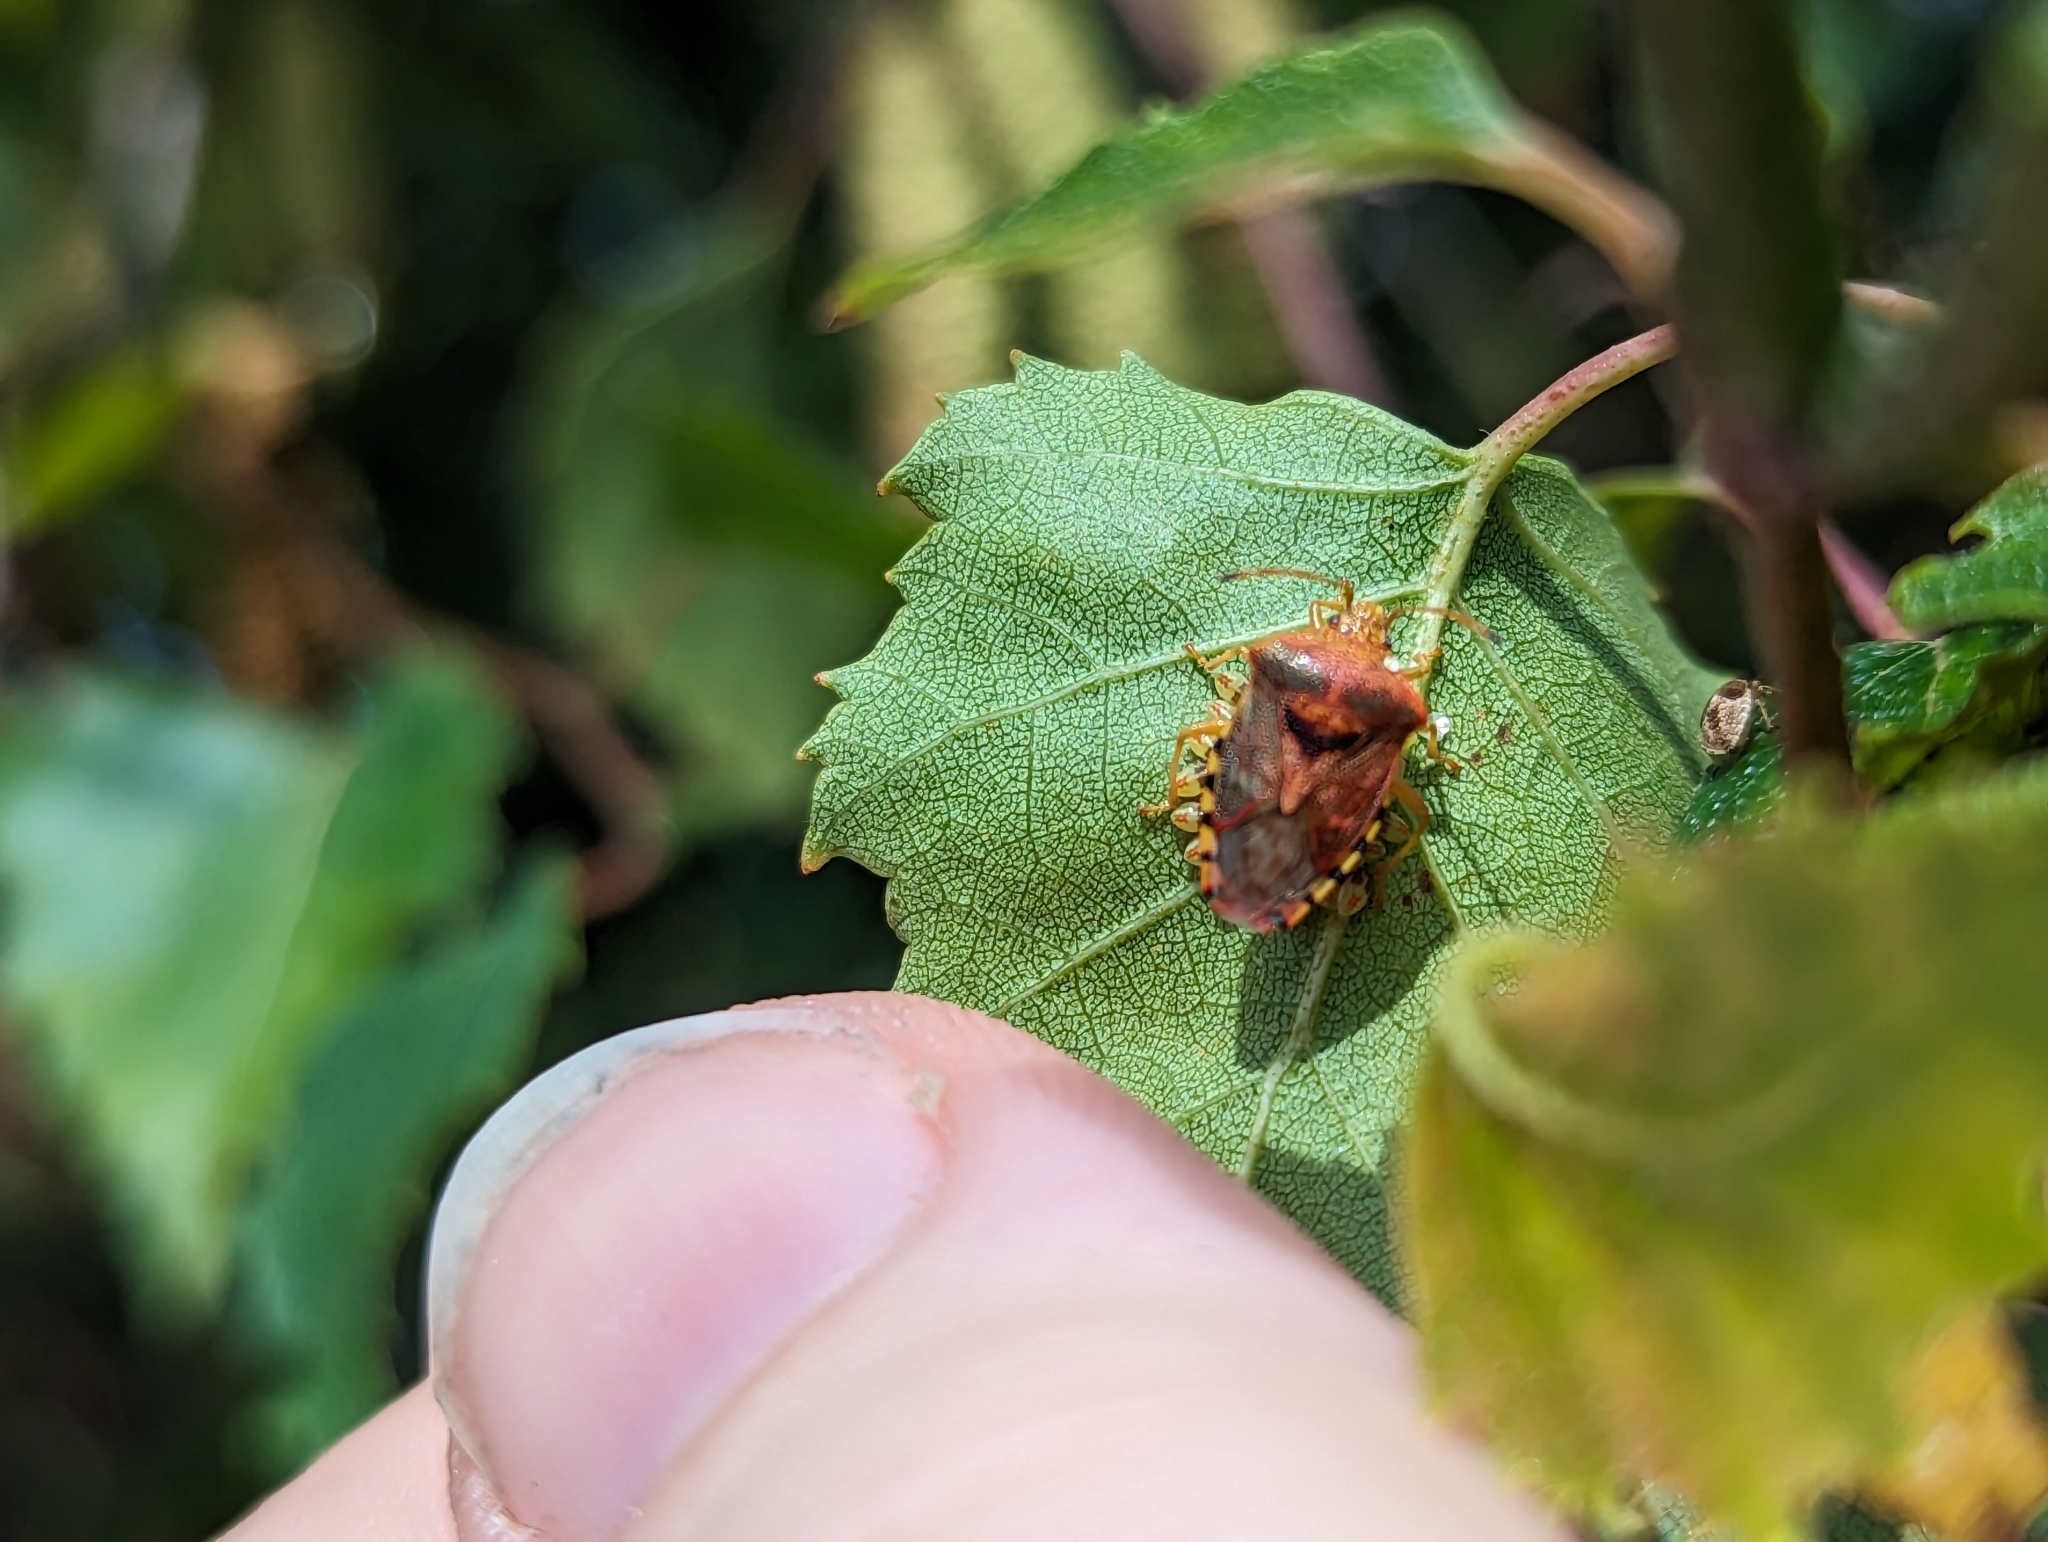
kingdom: Animalia
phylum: Arthropoda
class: Insecta
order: Hemiptera
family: Acanthosomatidae
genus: Elasmucha
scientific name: Elasmucha grisea
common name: Parent bug
